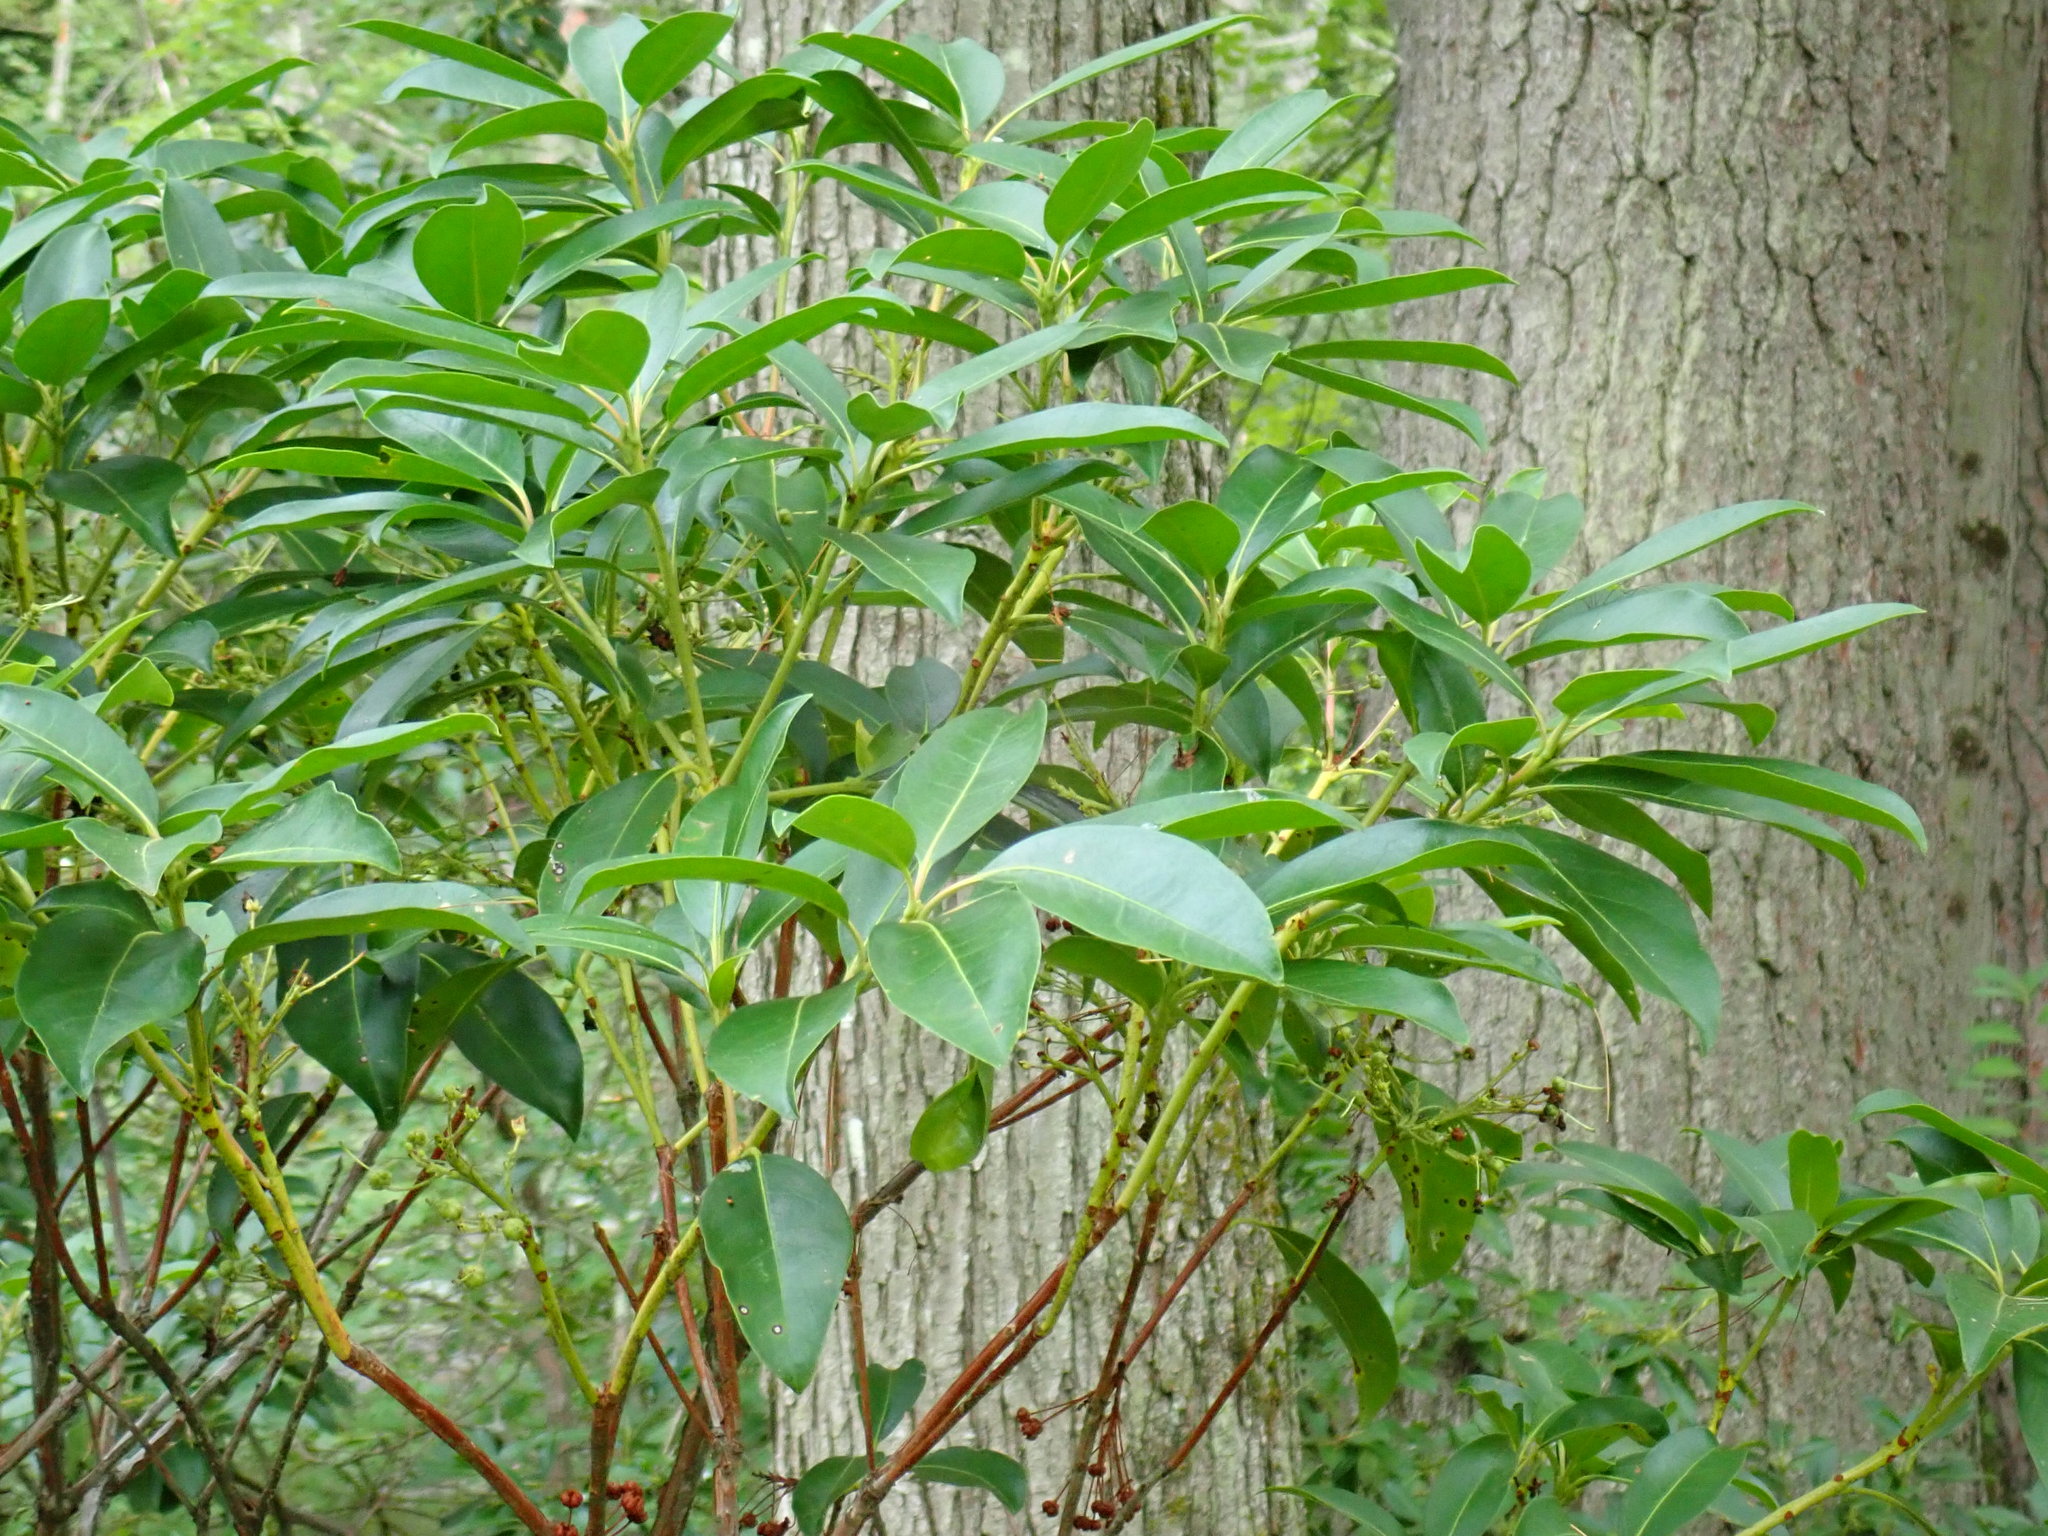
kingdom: Plantae
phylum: Tracheophyta
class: Magnoliopsida
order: Ericales
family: Ericaceae
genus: Kalmia
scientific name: Kalmia latifolia
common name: Mountain-laurel
